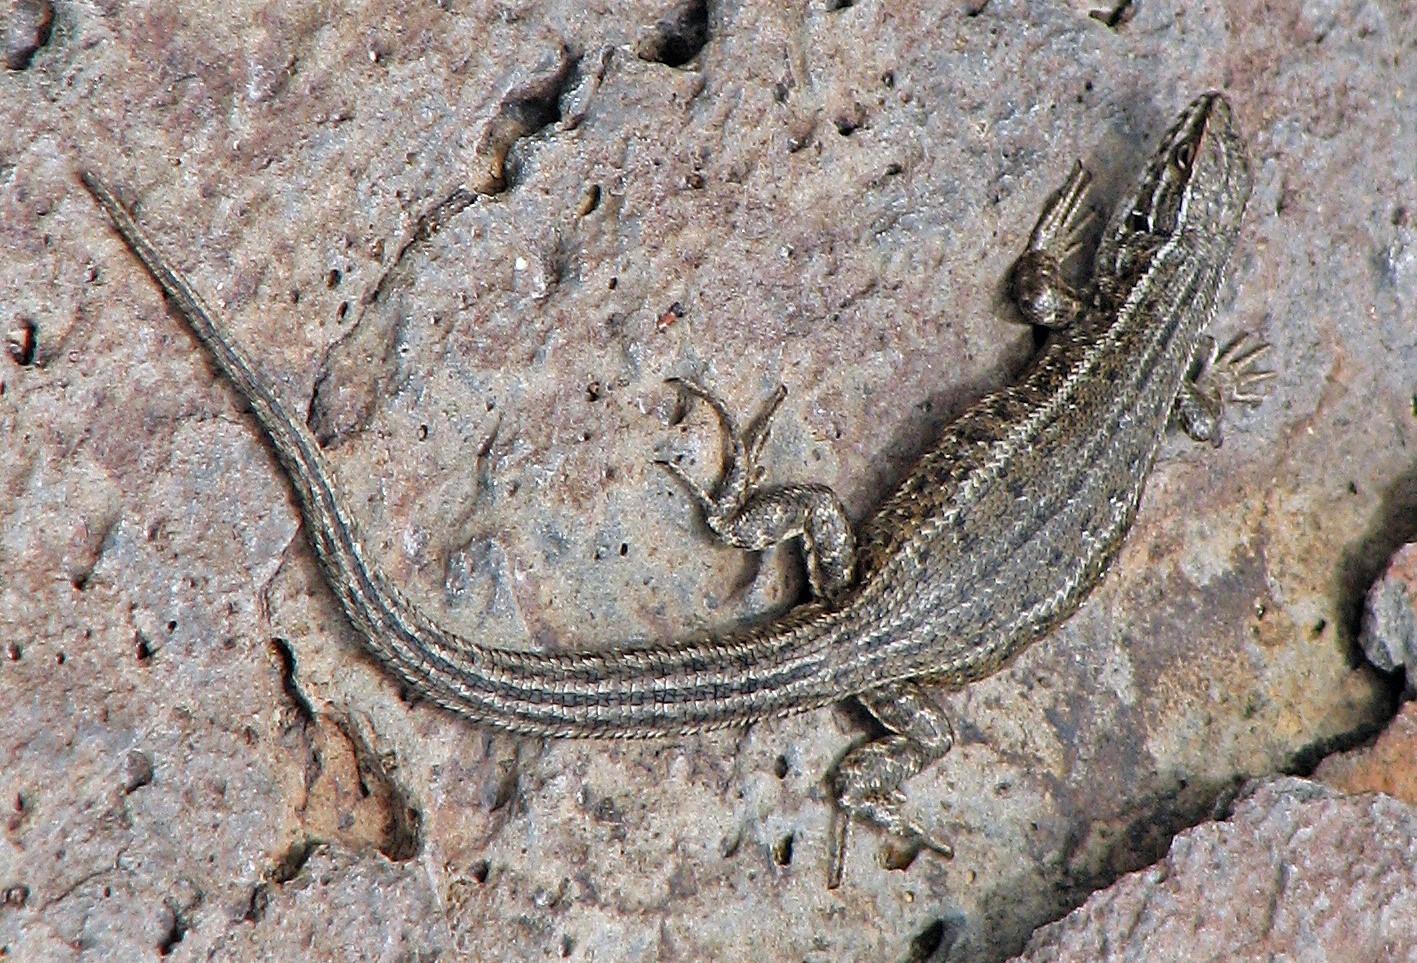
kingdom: Animalia
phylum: Chordata
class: Squamata
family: Liolaemidae
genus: Liolaemus
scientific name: Liolaemus bibronii
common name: Bibron's tree iguana
